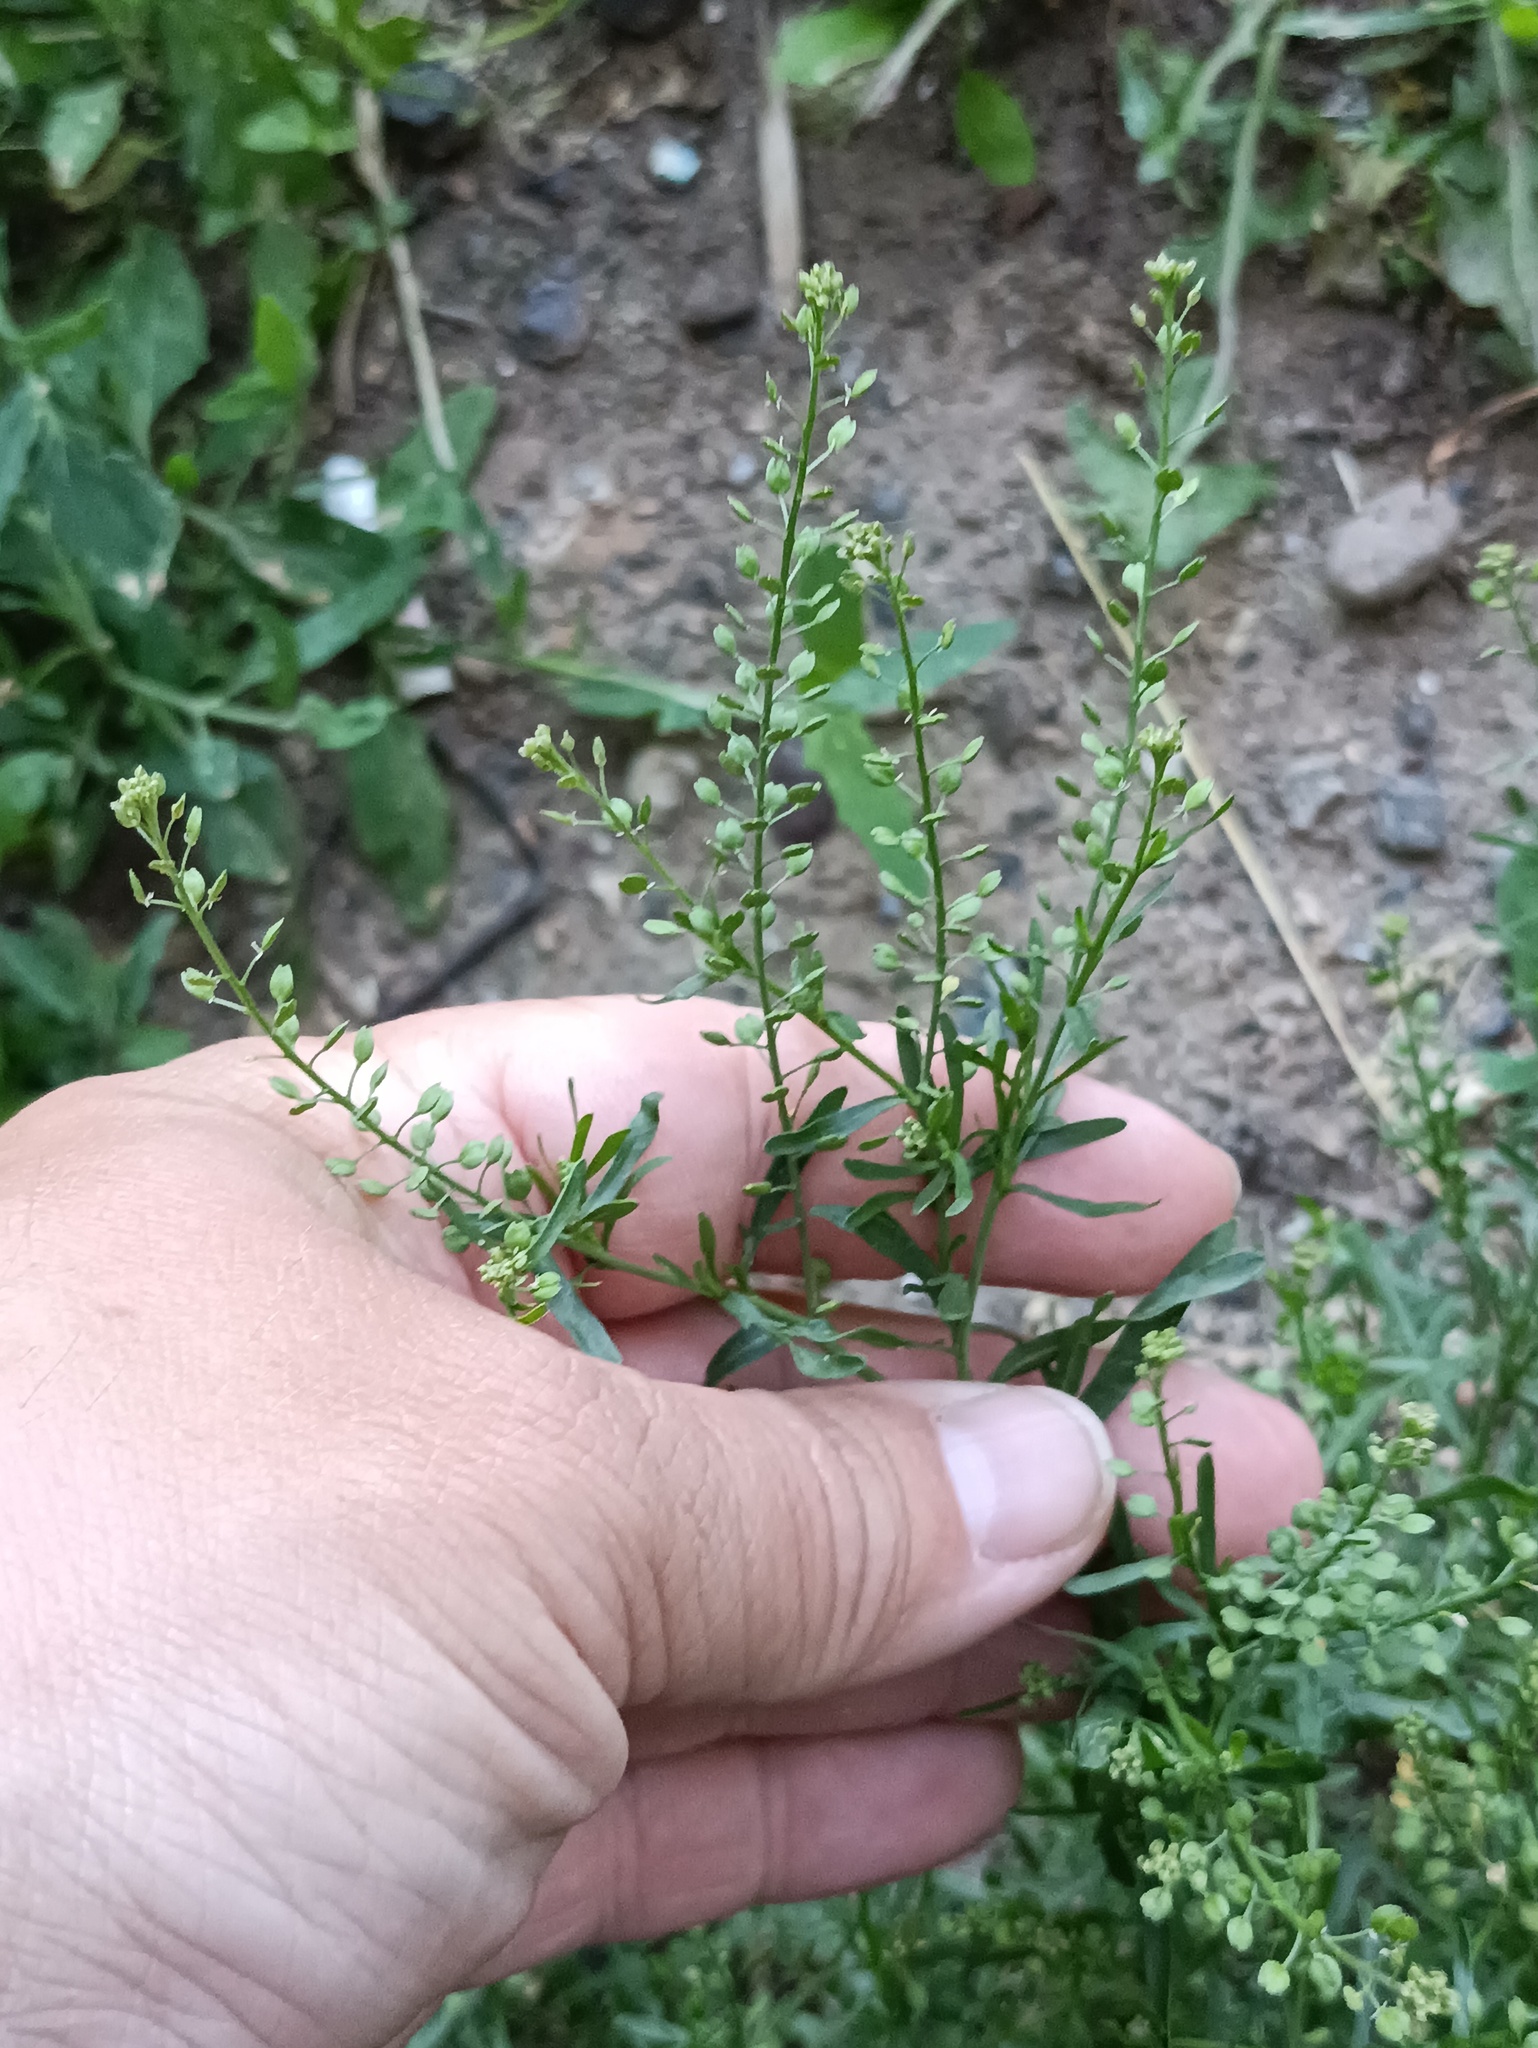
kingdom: Plantae
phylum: Tracheophyta
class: Magnoliopsida
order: Brassicales
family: Brassicaceae
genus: Lepidium
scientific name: Lepidium ruderale
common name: Narrow-leaved pepperwort
